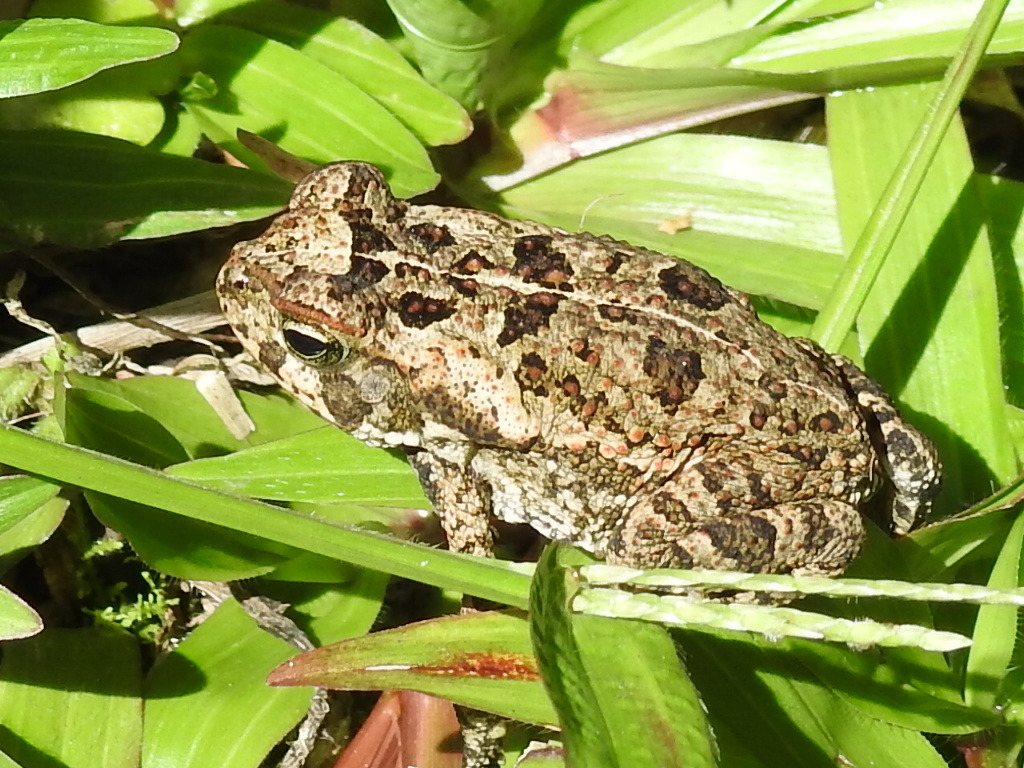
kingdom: Animalia
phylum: Chordata
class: Amphibia
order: Anura
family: Bufonidae
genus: Rhinella
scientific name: Rhinella horribilis
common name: Mesoamerican cane toad
